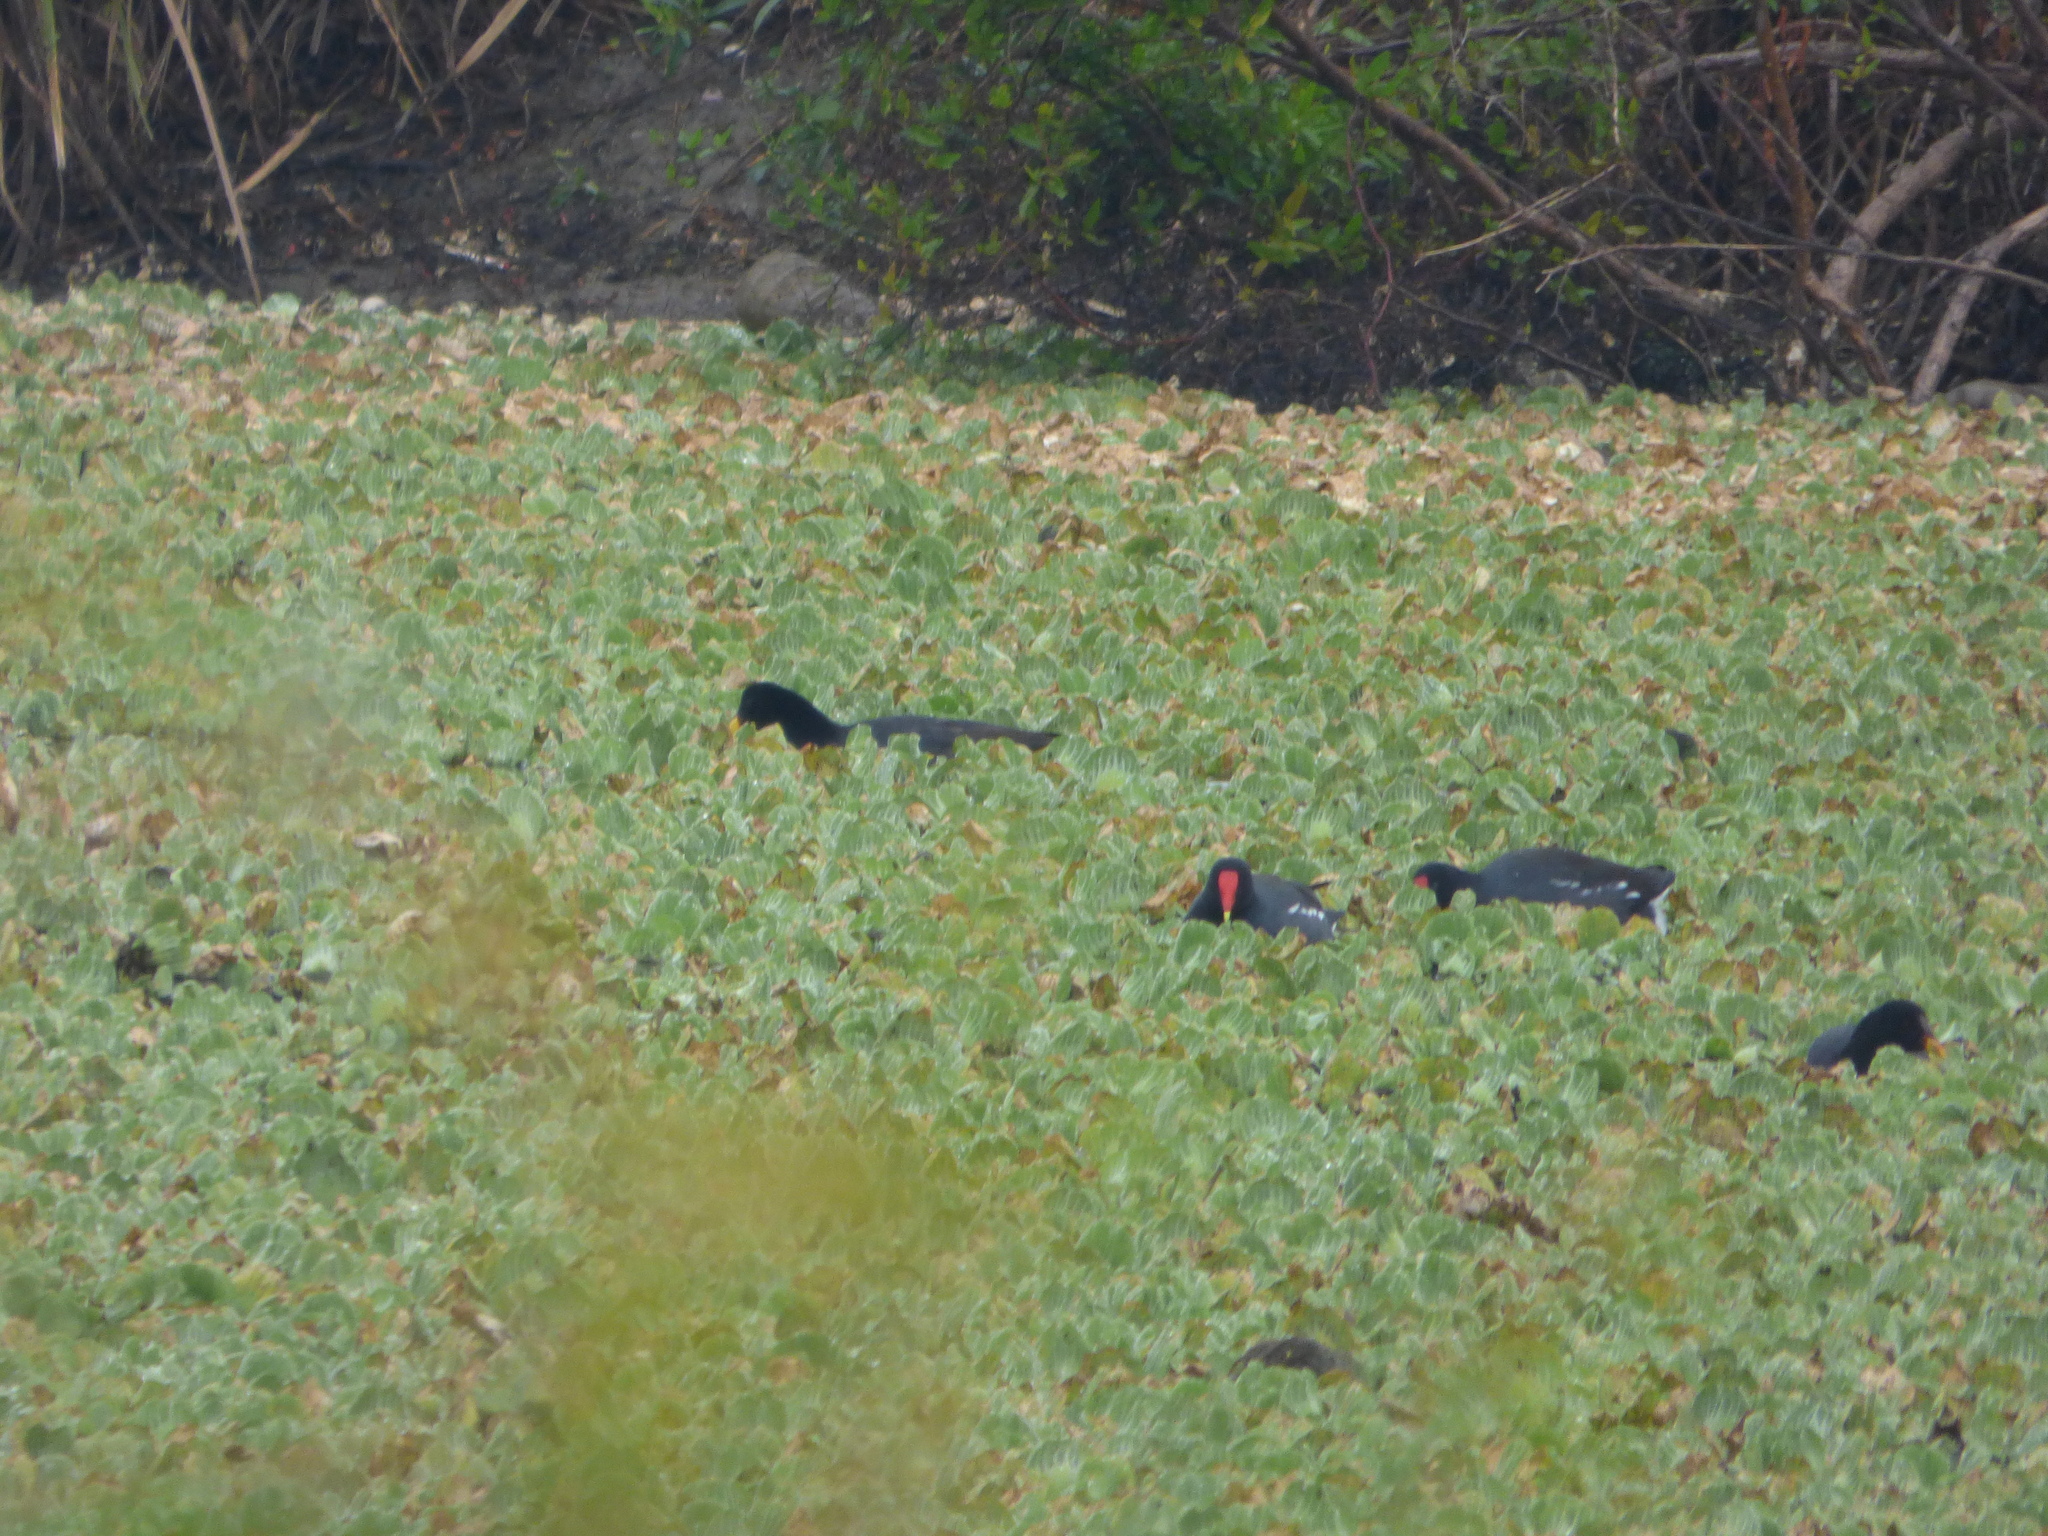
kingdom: Animalia
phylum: Chordata
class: Aves
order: Gruiformes
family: Rallidae
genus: Gallinula
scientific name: Gallinula chloropus
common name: Common moorhen
